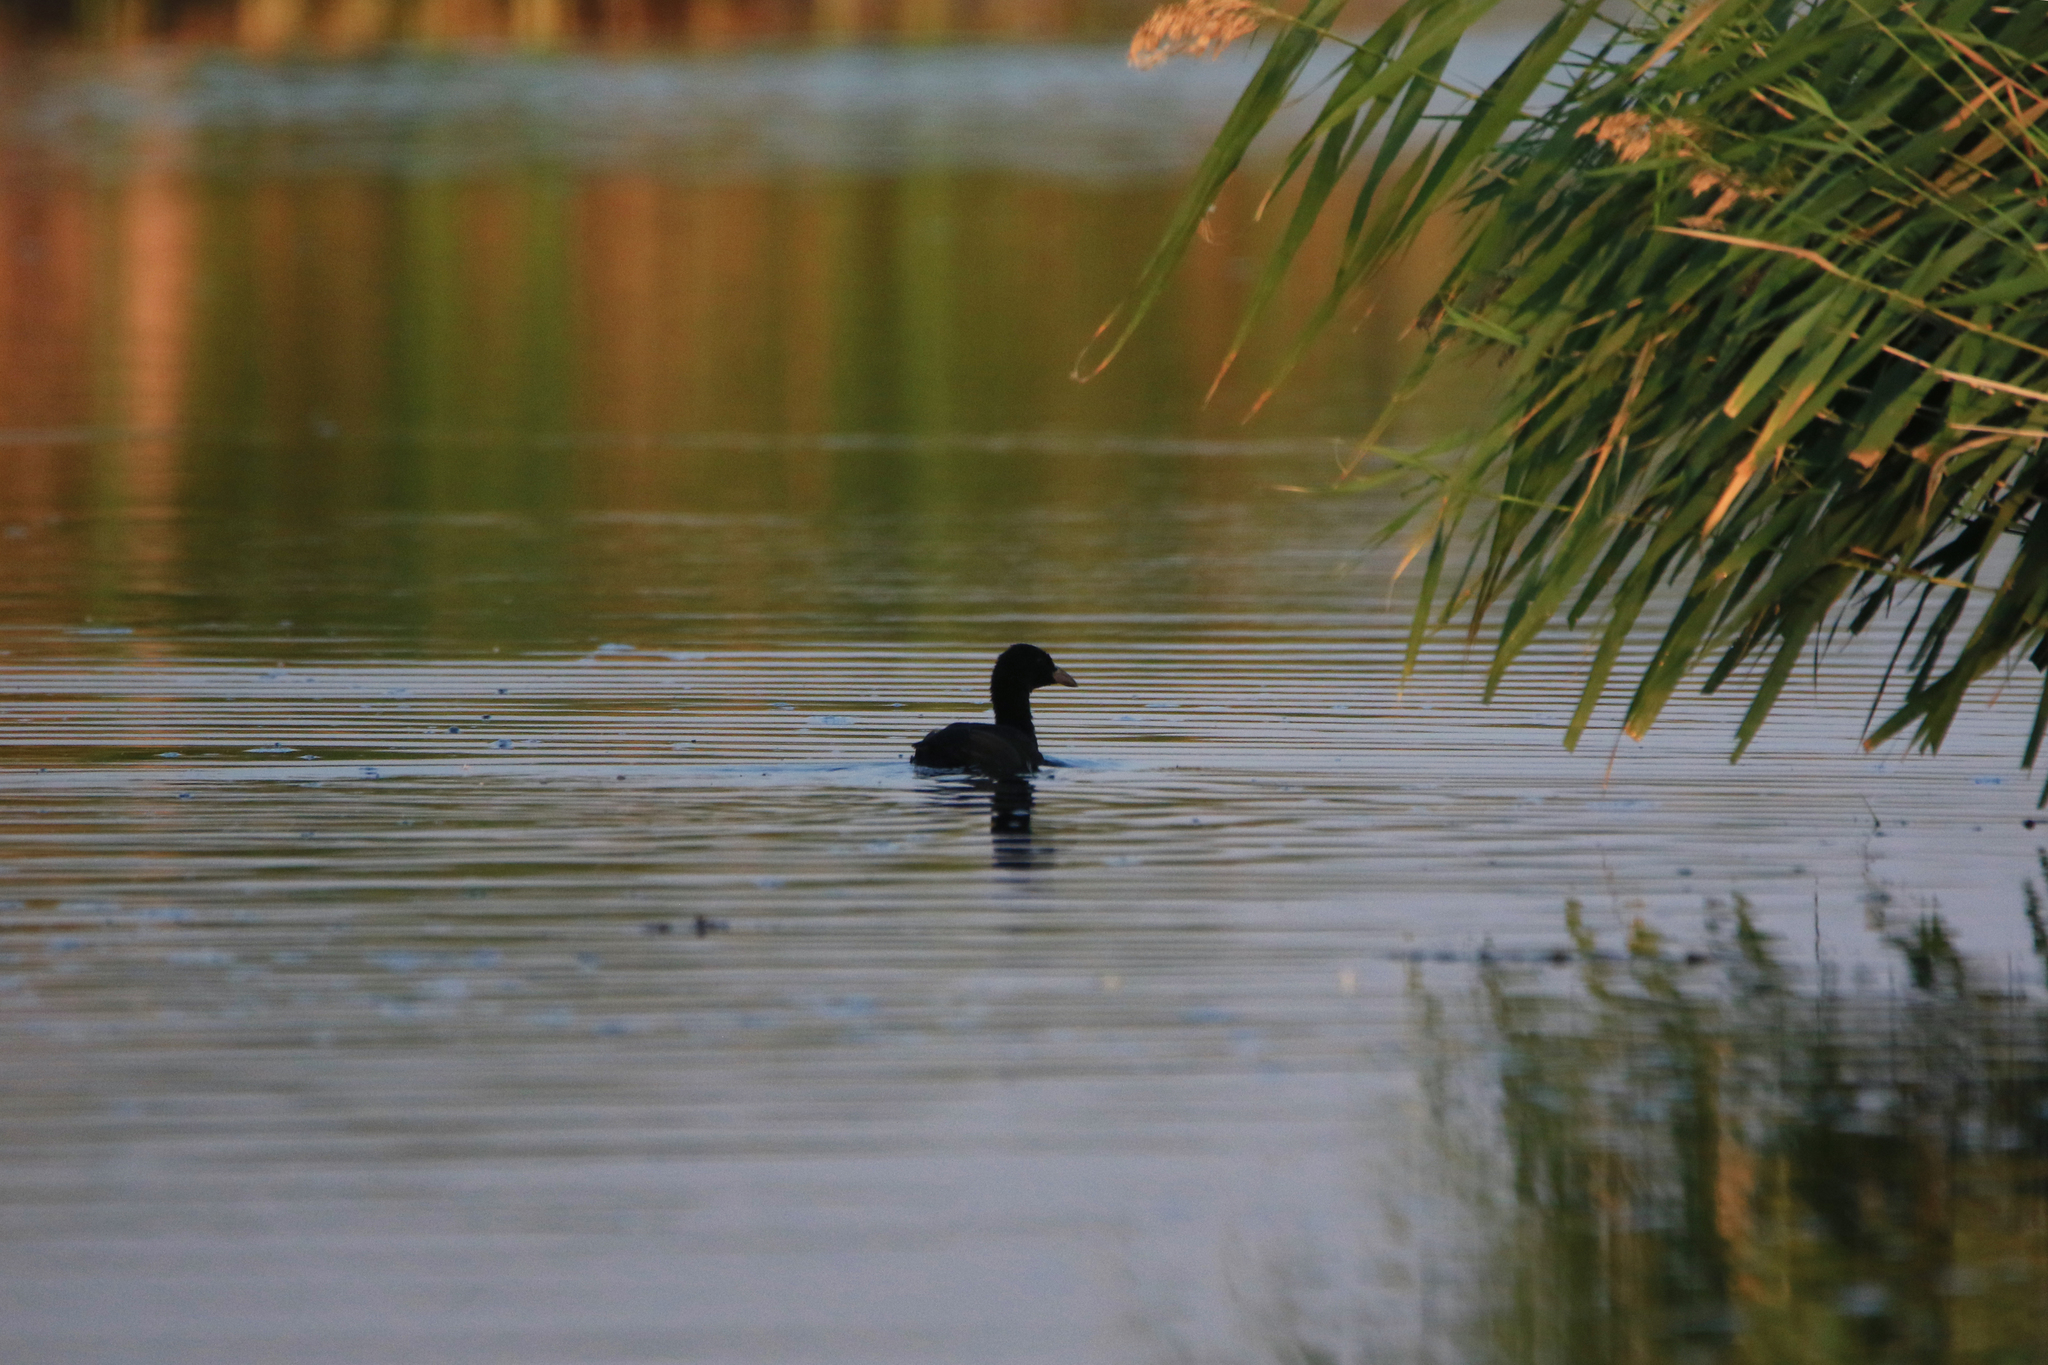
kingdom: Animalia
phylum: Chordata
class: Aves
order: Gruiformes
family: Rallidae
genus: Fulica
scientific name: Fulica atra
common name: Eurasian coot
